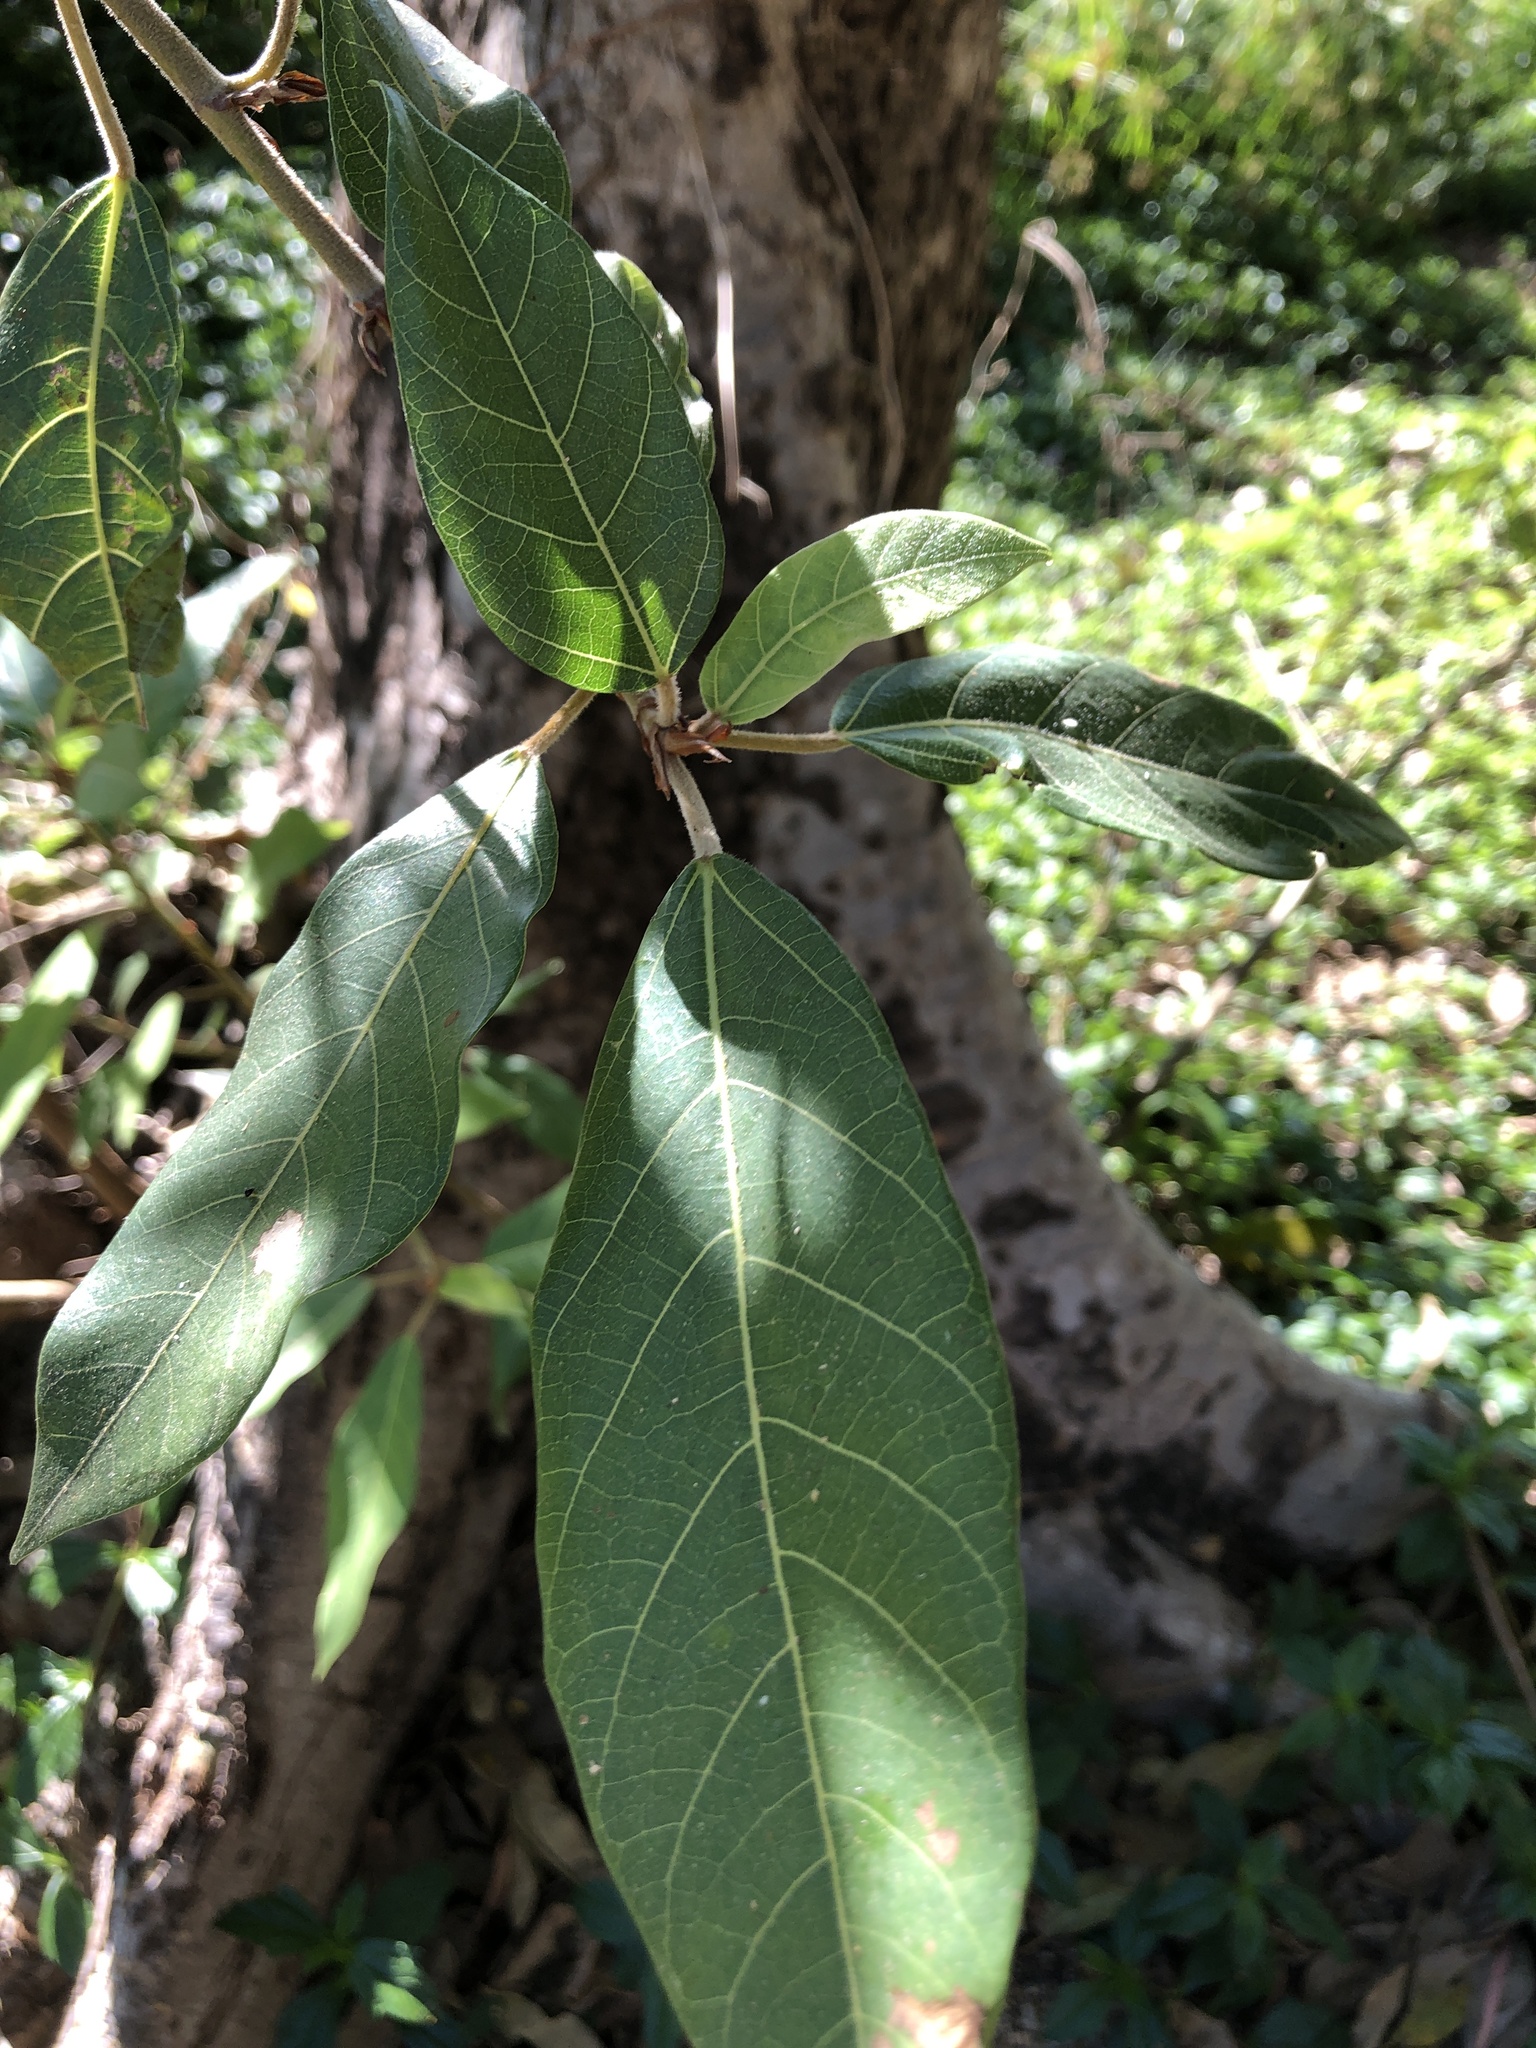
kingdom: Plantae
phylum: Tracheophyta
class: Magnoliopsida
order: Rosales
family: Moraceae
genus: Ficus
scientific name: Ficus racemosa
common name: Cluster fig
